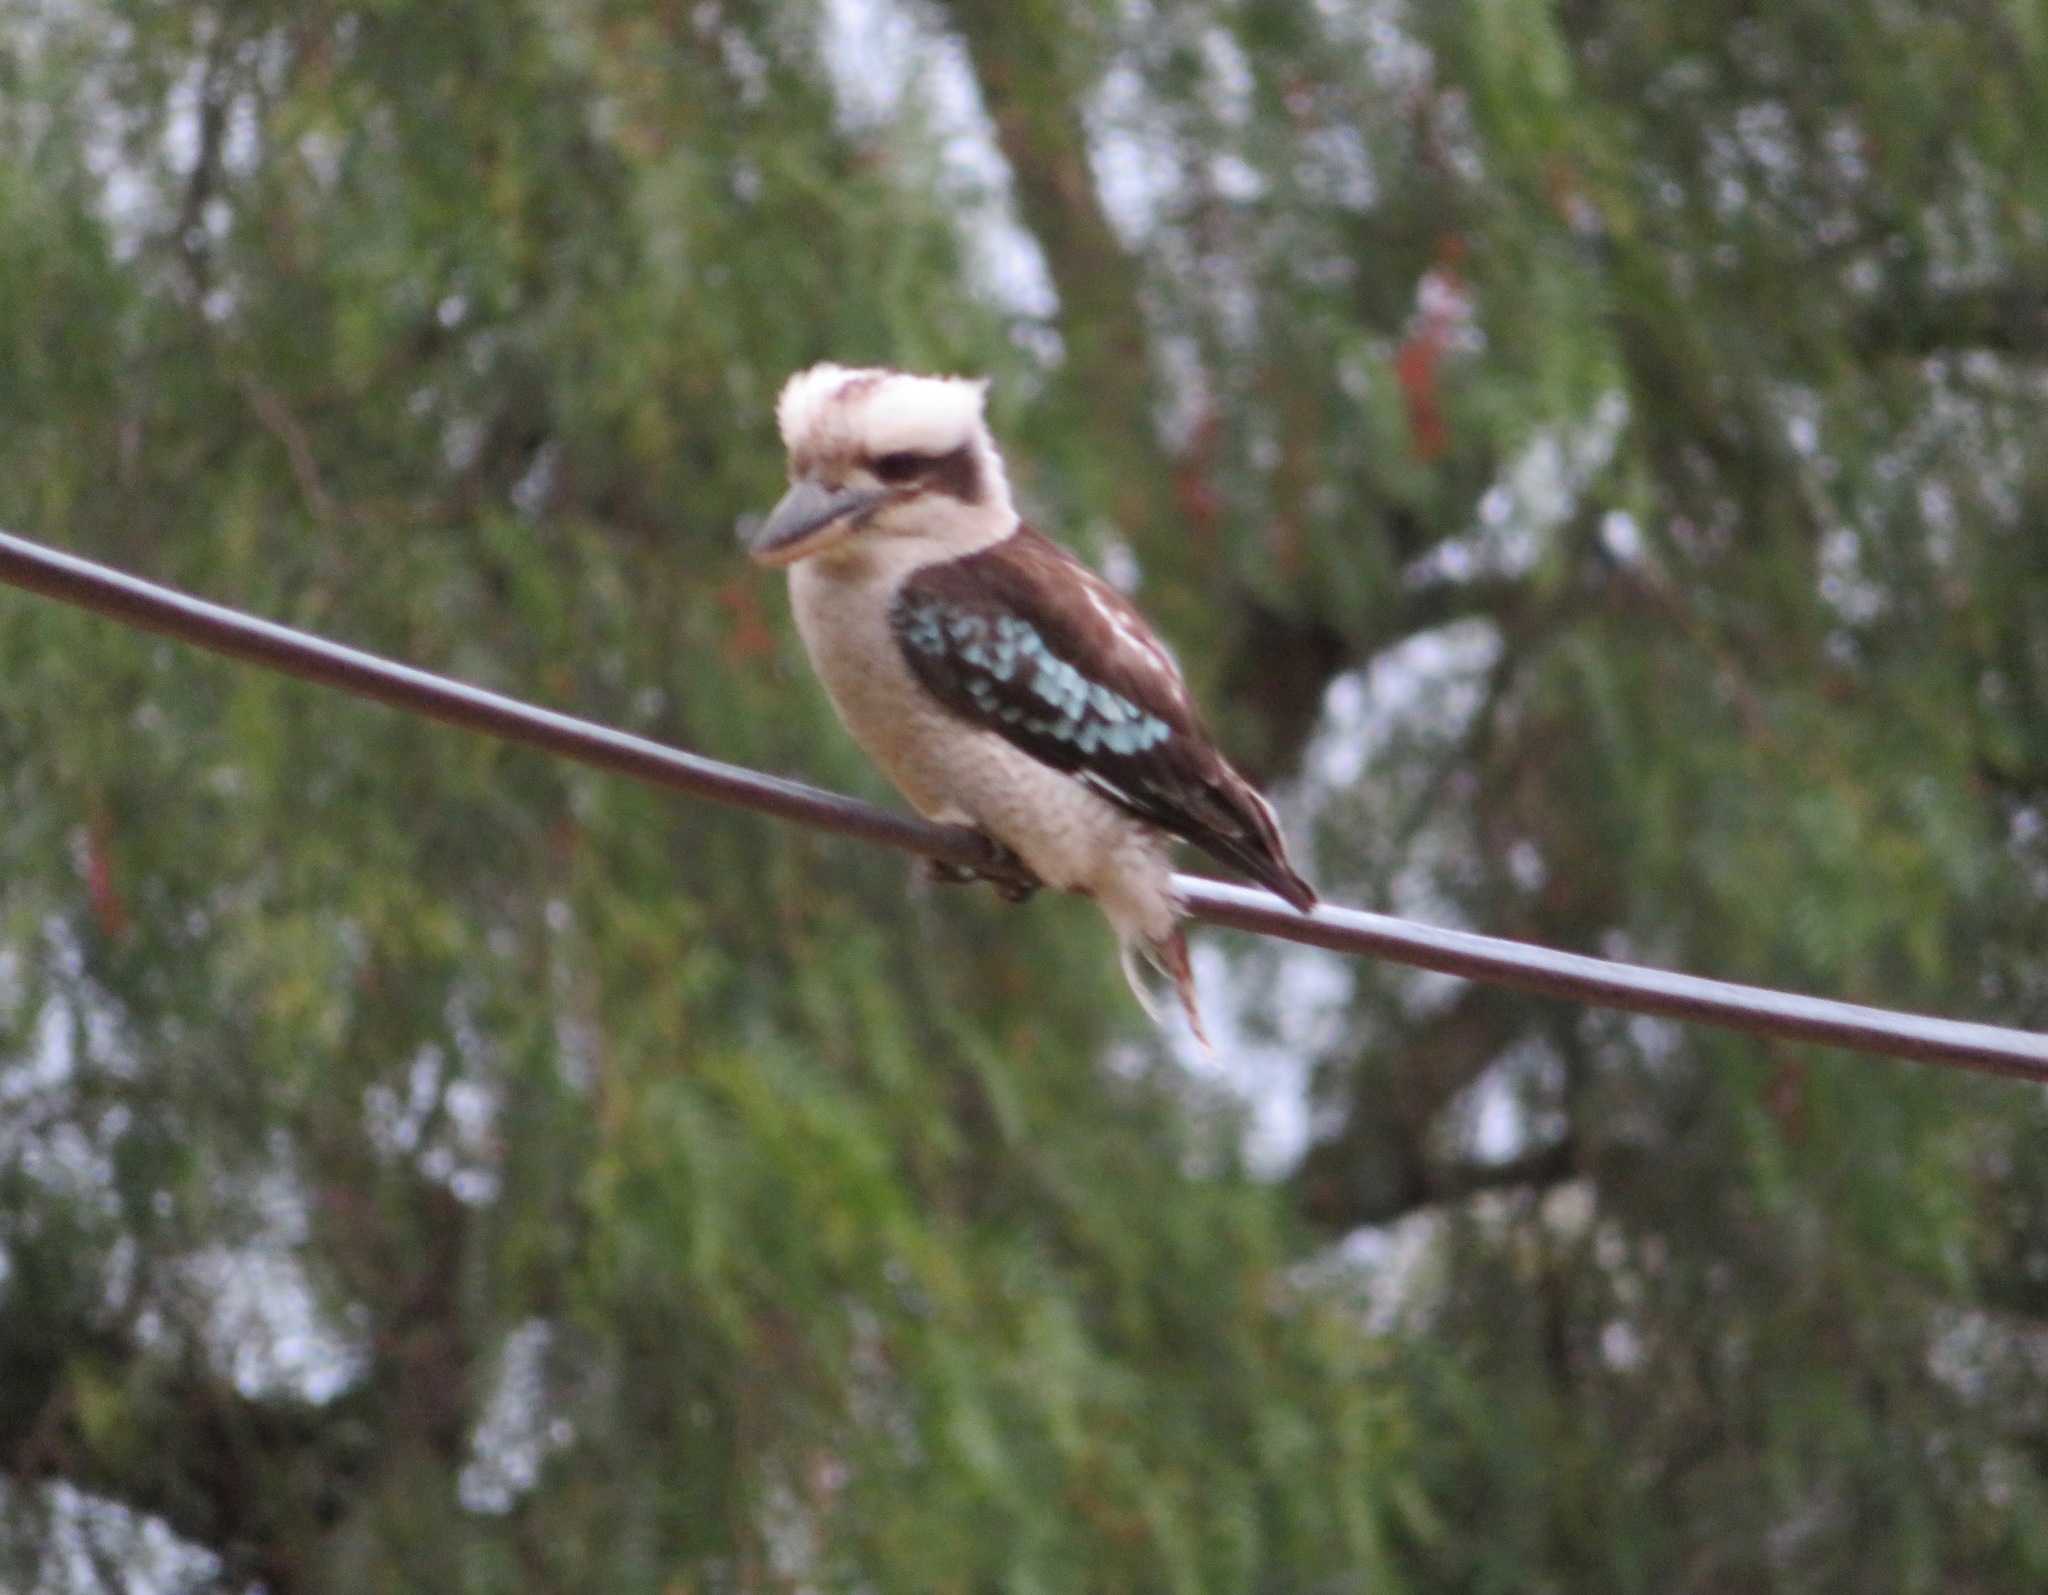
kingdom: Animalia
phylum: Chordata
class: Aves
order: Coraciiformes
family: Alcedinidae
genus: Dacelo
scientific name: Dacelo novaeguineae
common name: Laughing kookaburra
